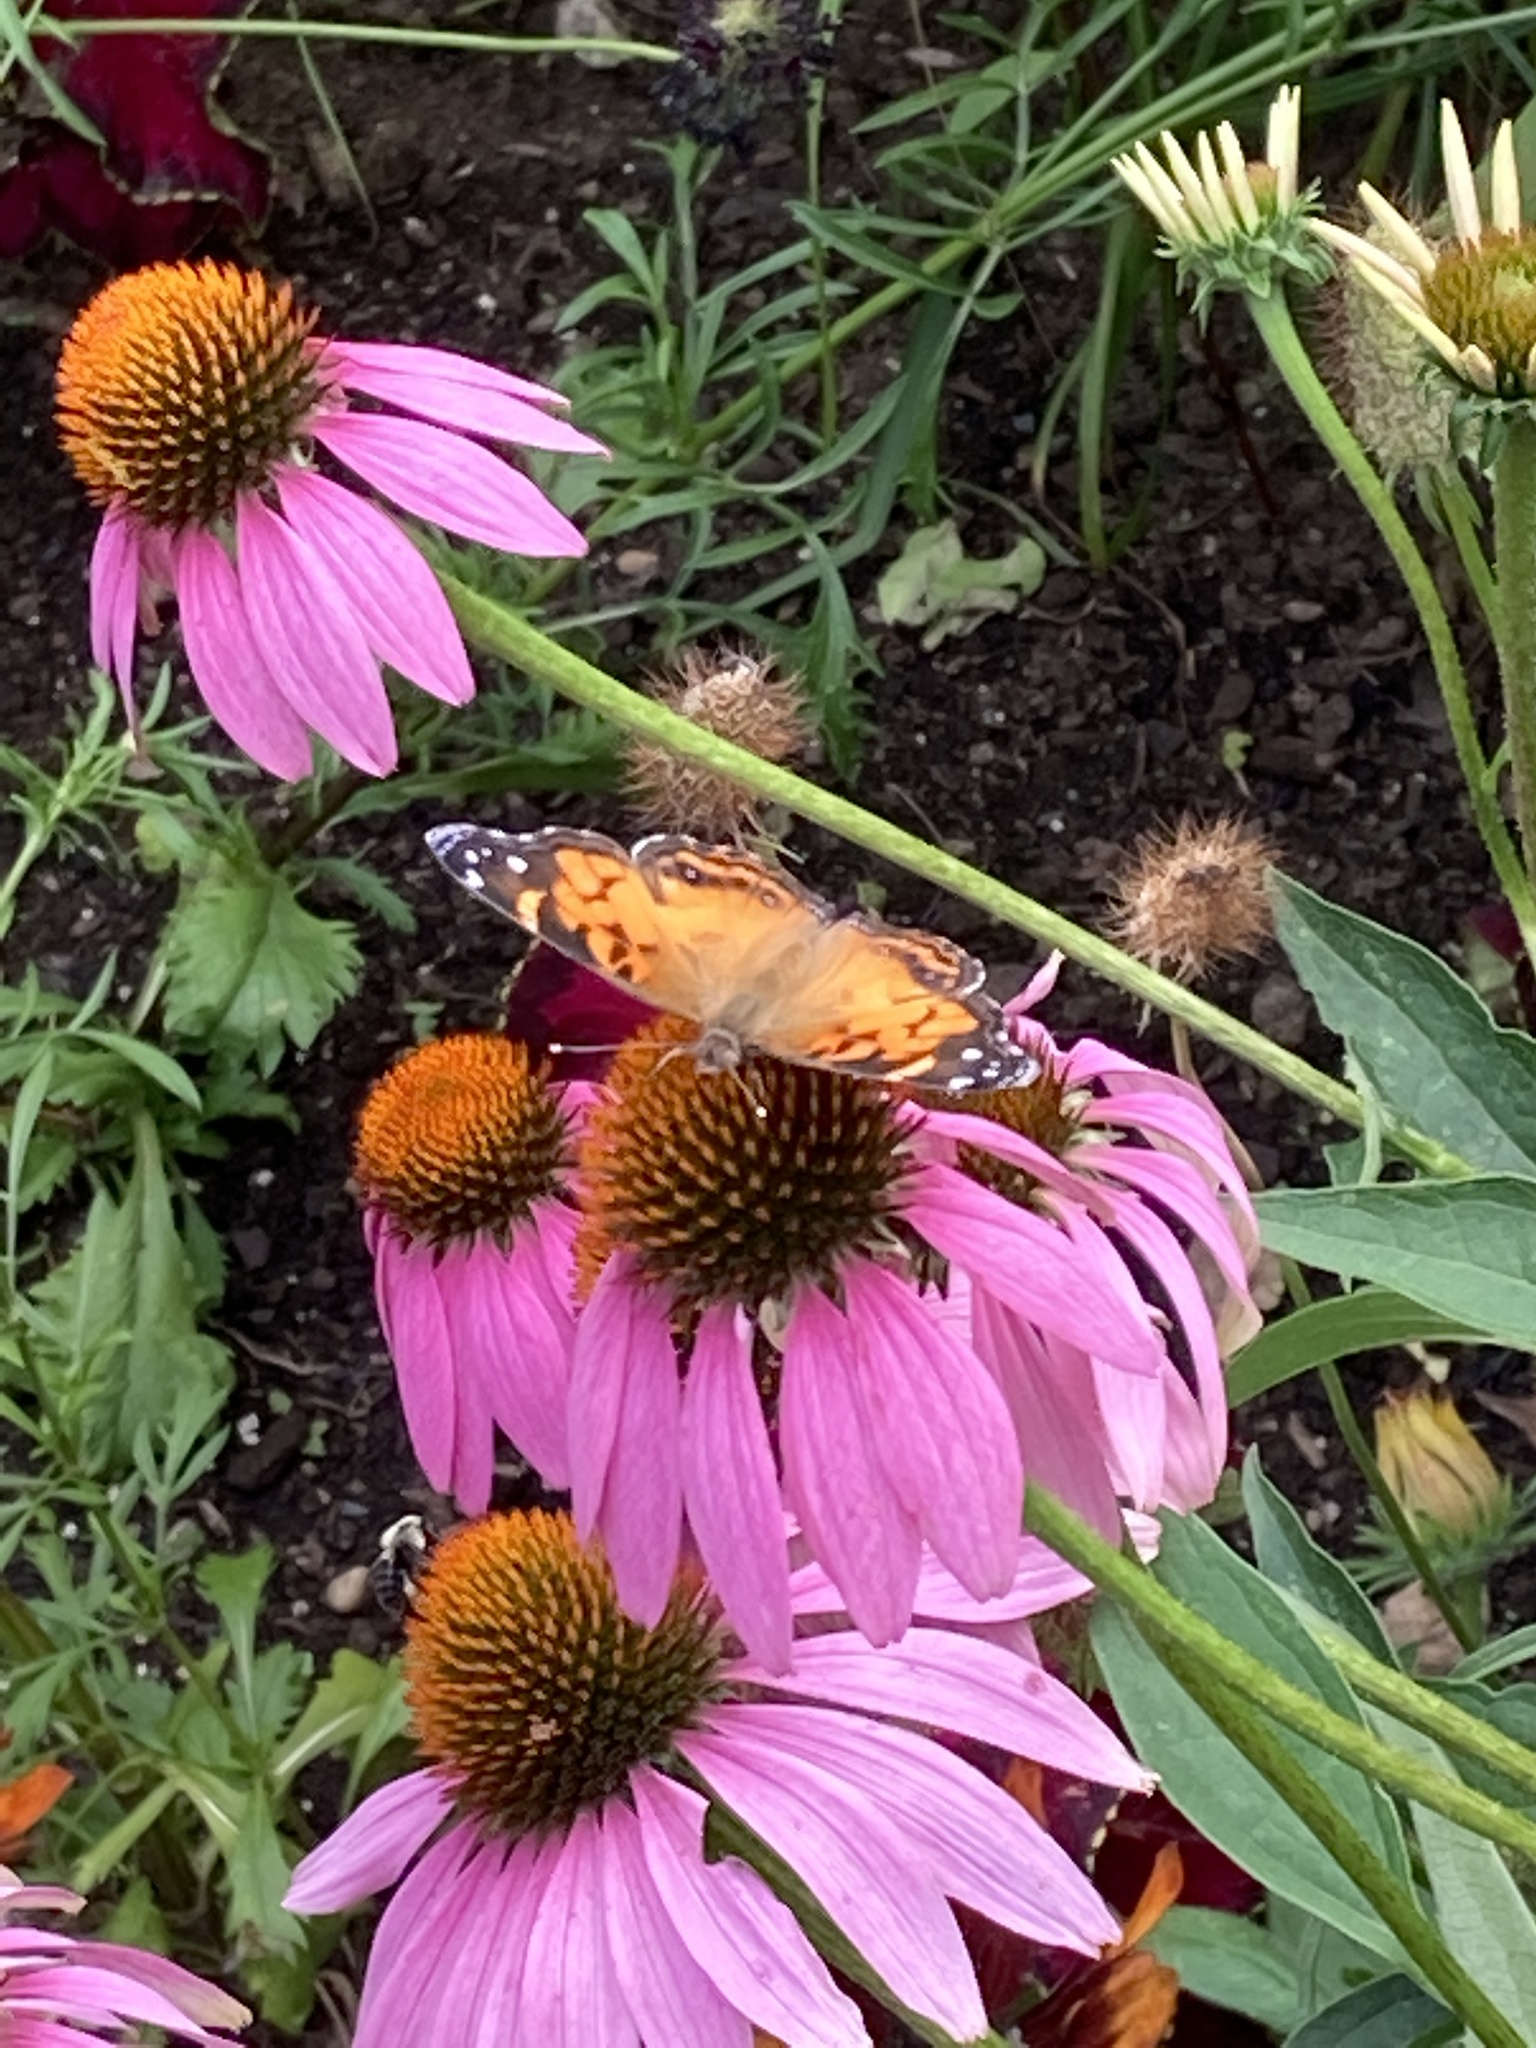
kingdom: Animalia
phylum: Arthropoda
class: Insecta
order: Lepidoptera
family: Nymphalidae
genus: Vanessa
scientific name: Vanessa virginiensis
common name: American lady
